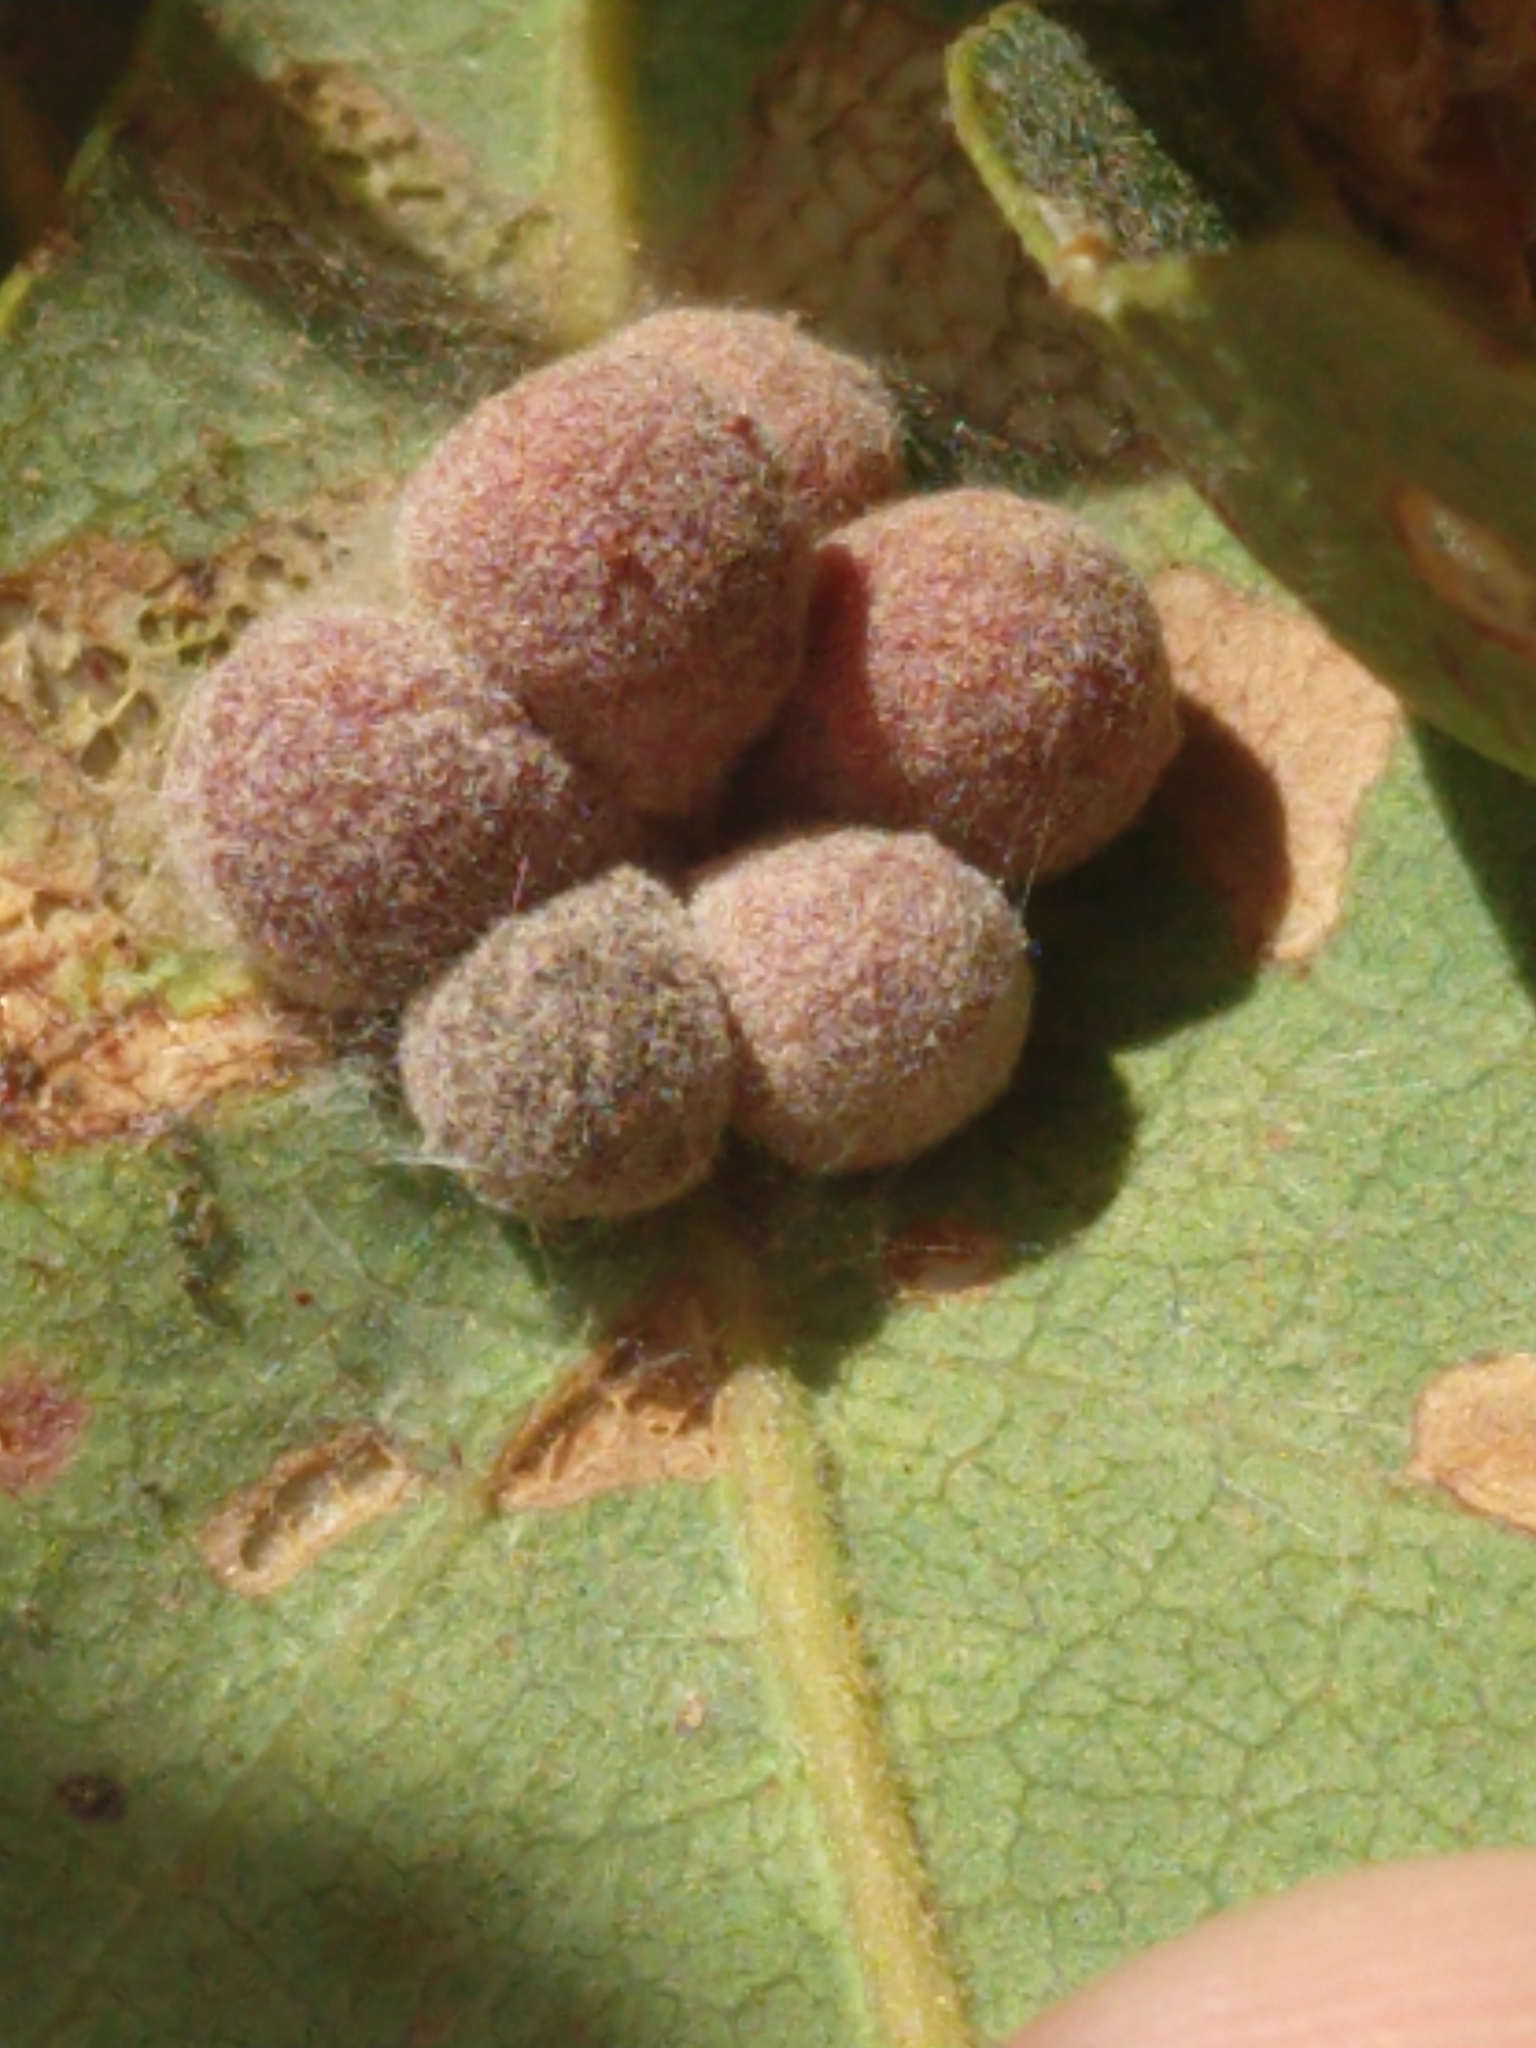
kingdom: Animalia
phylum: Arthropoda
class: Insecta
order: Hymenoptera
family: Cynipidae
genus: Andricus
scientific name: Andricus
